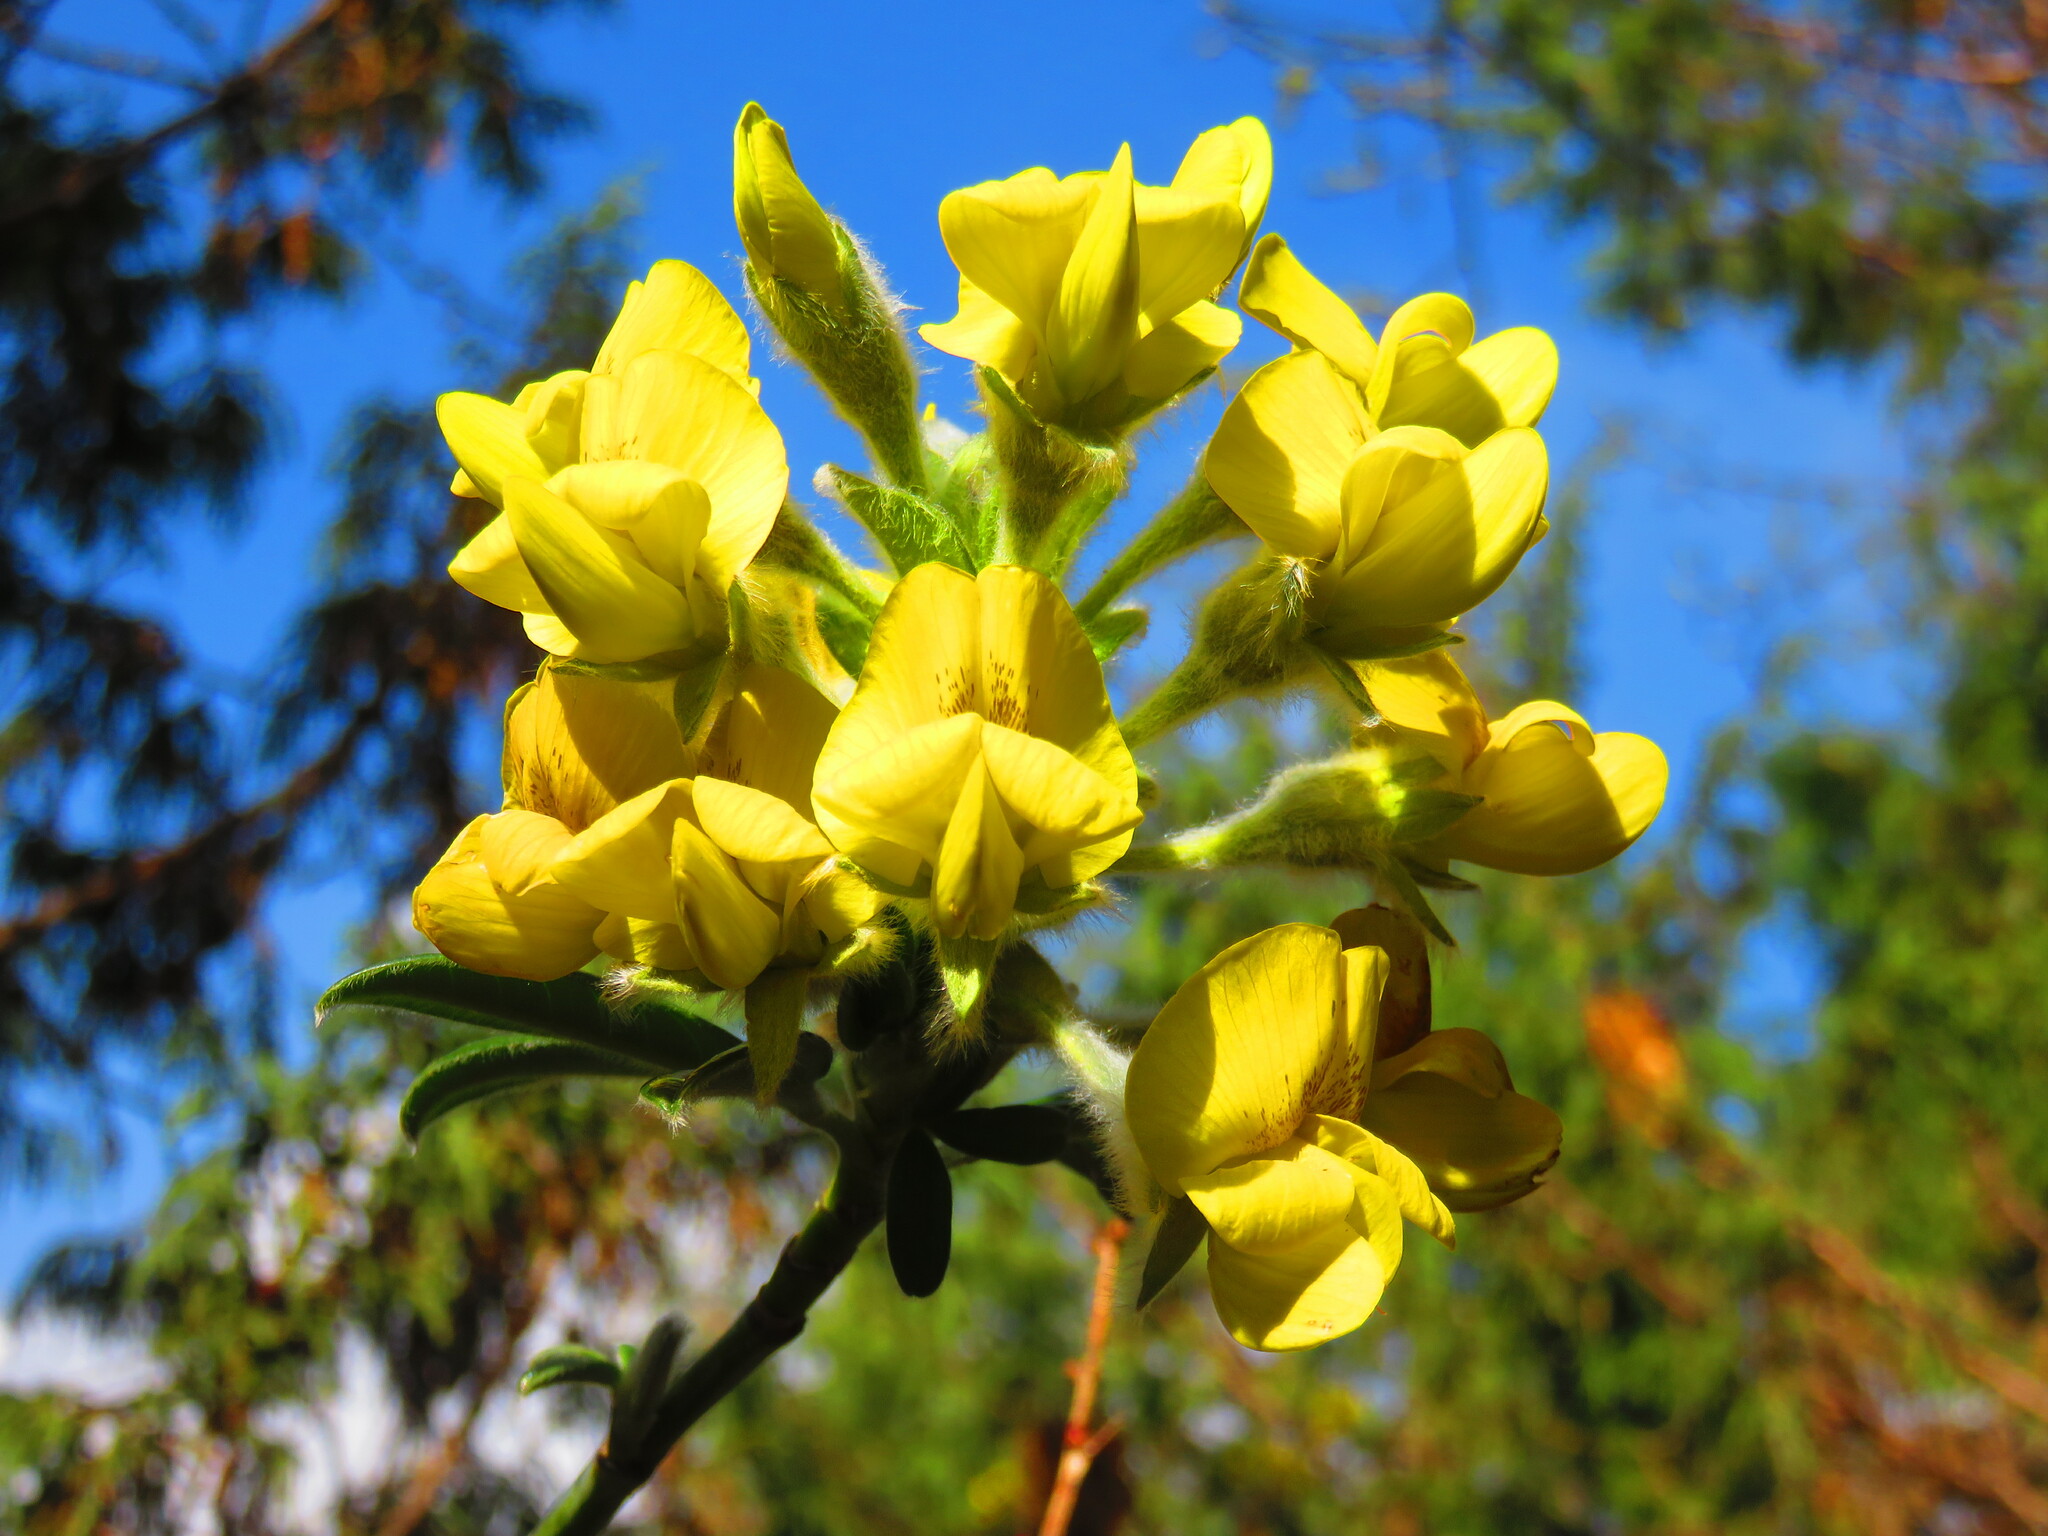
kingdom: Plantae
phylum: Tracheophyta
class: Magnoliopsida
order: Fabales
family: Fabaceae
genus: Piptanthus
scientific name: Piptanthus nepalensis
